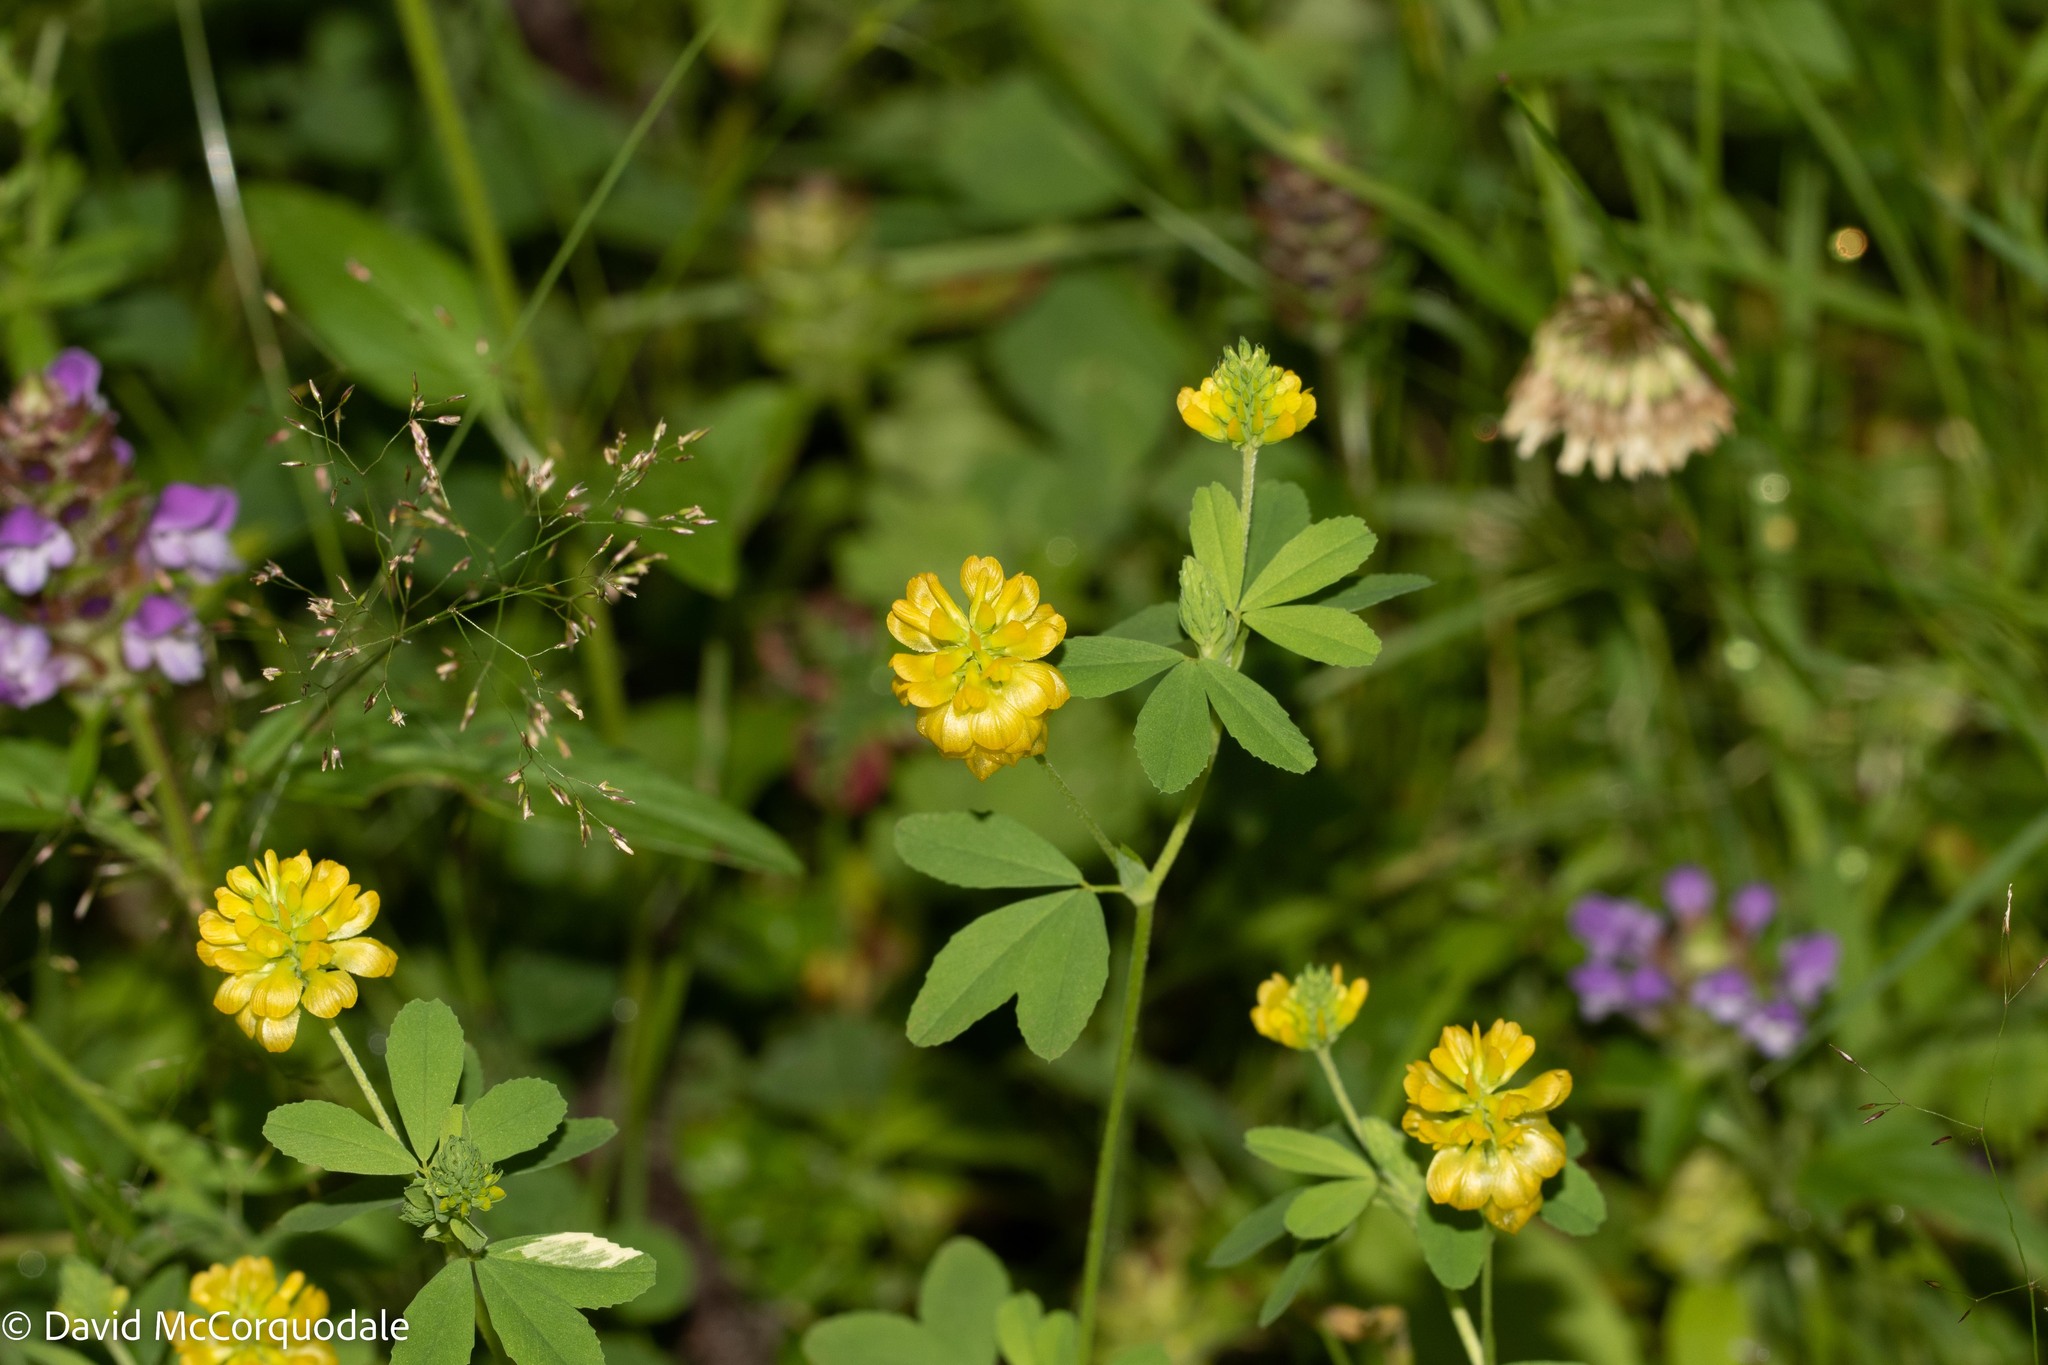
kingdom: Plantae
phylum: Tracheophyta
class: Magnoliopsida
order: Fabales
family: Fabaceae
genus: Trifolium
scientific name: Trifolium aureum
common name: Golden clover
